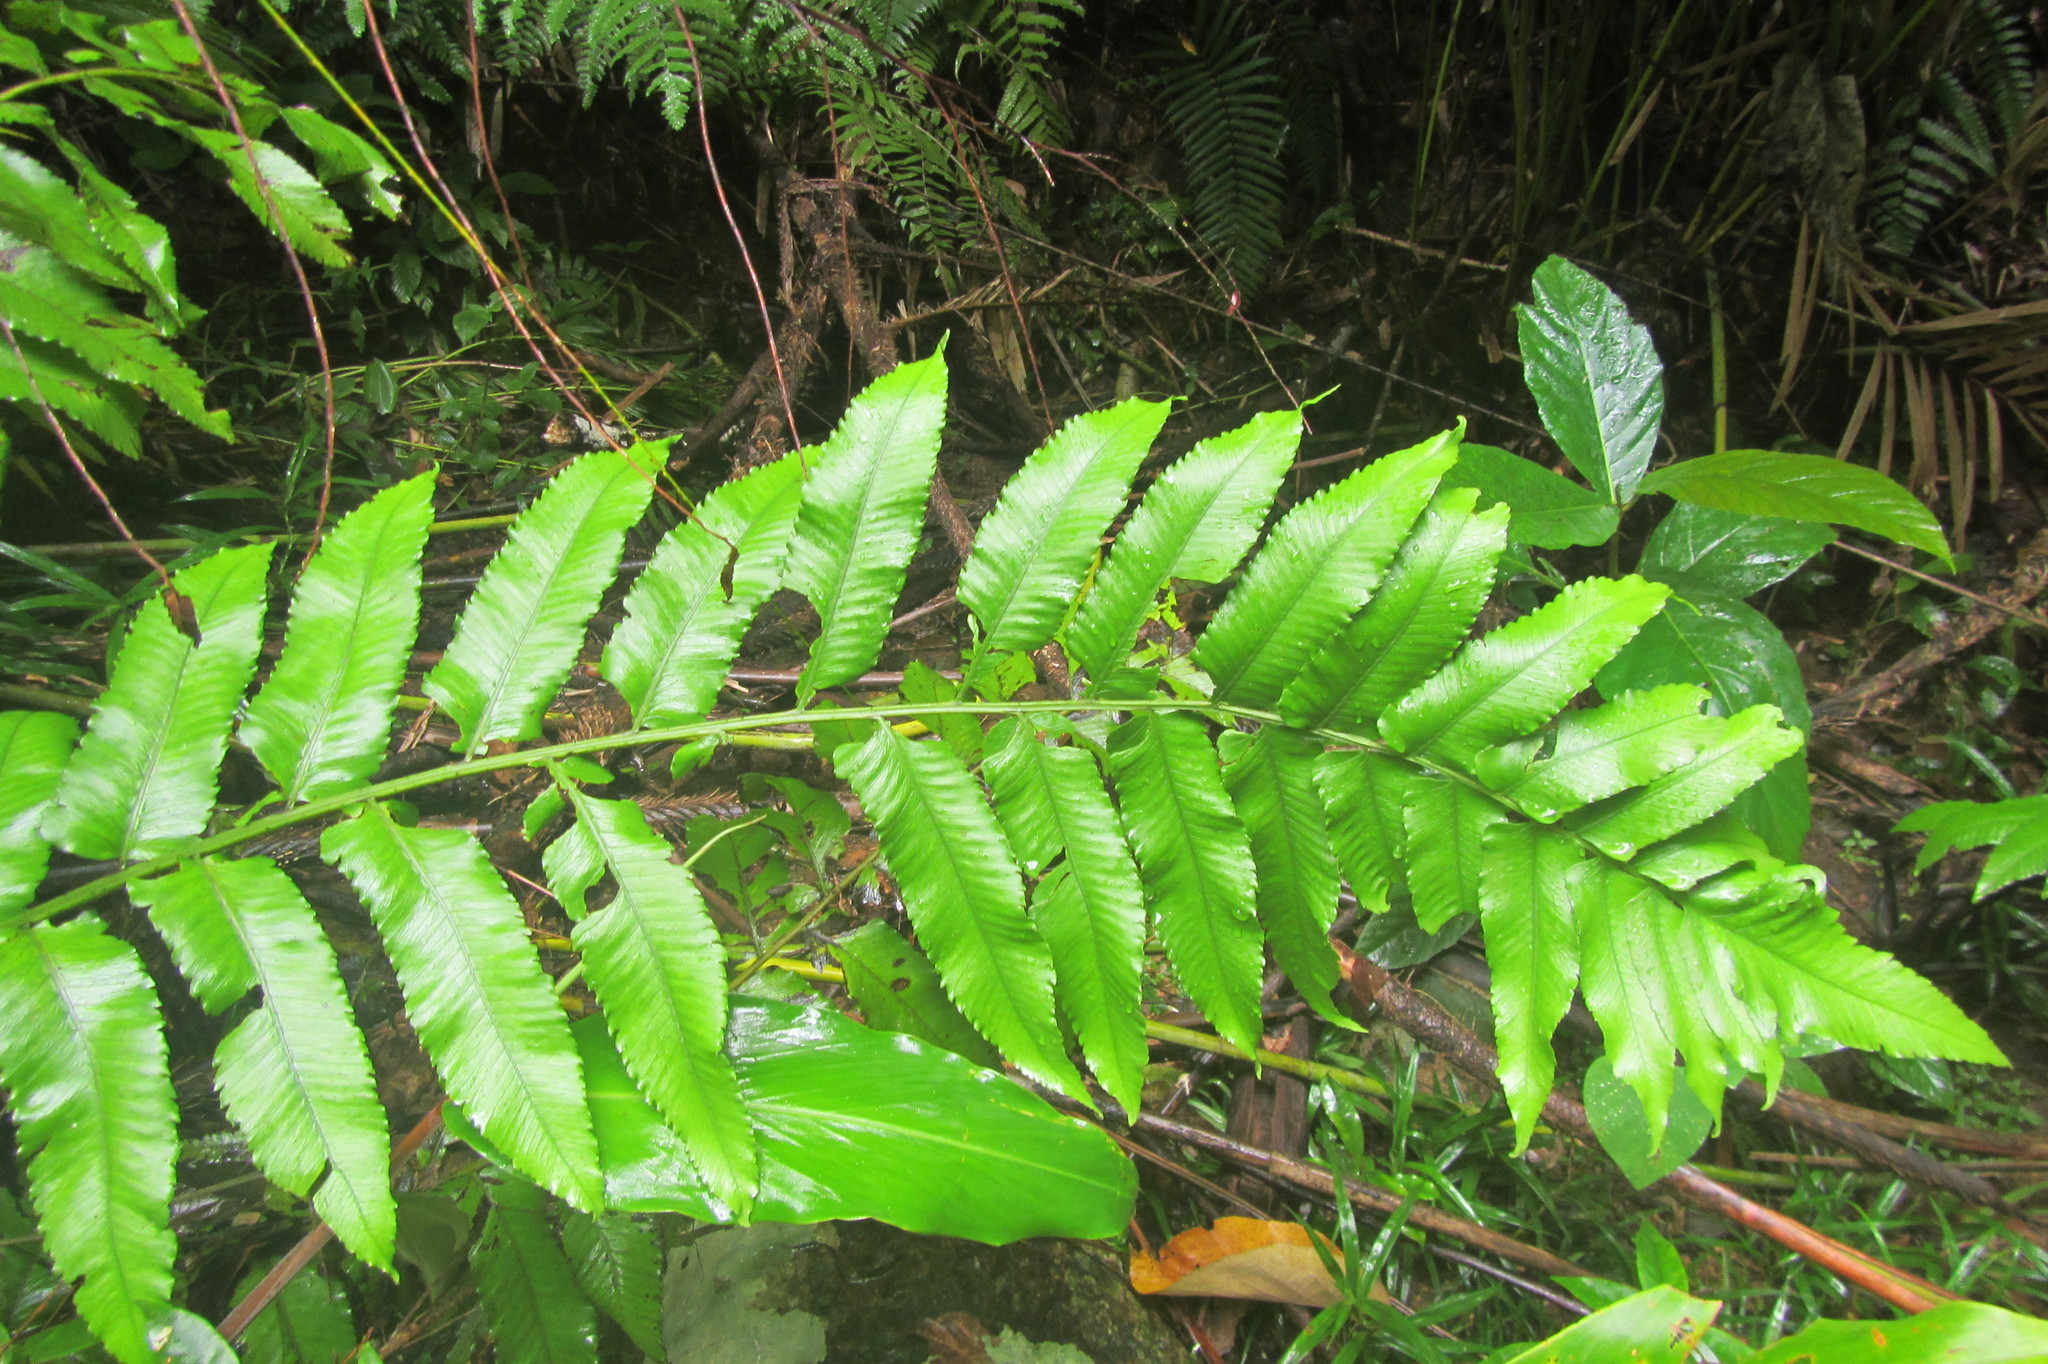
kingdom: Plantae
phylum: Tracheophyta
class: Polypodiopsida
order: Polypodiales
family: Athyriaceae
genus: Diplazium
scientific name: Diplazium proliferum
